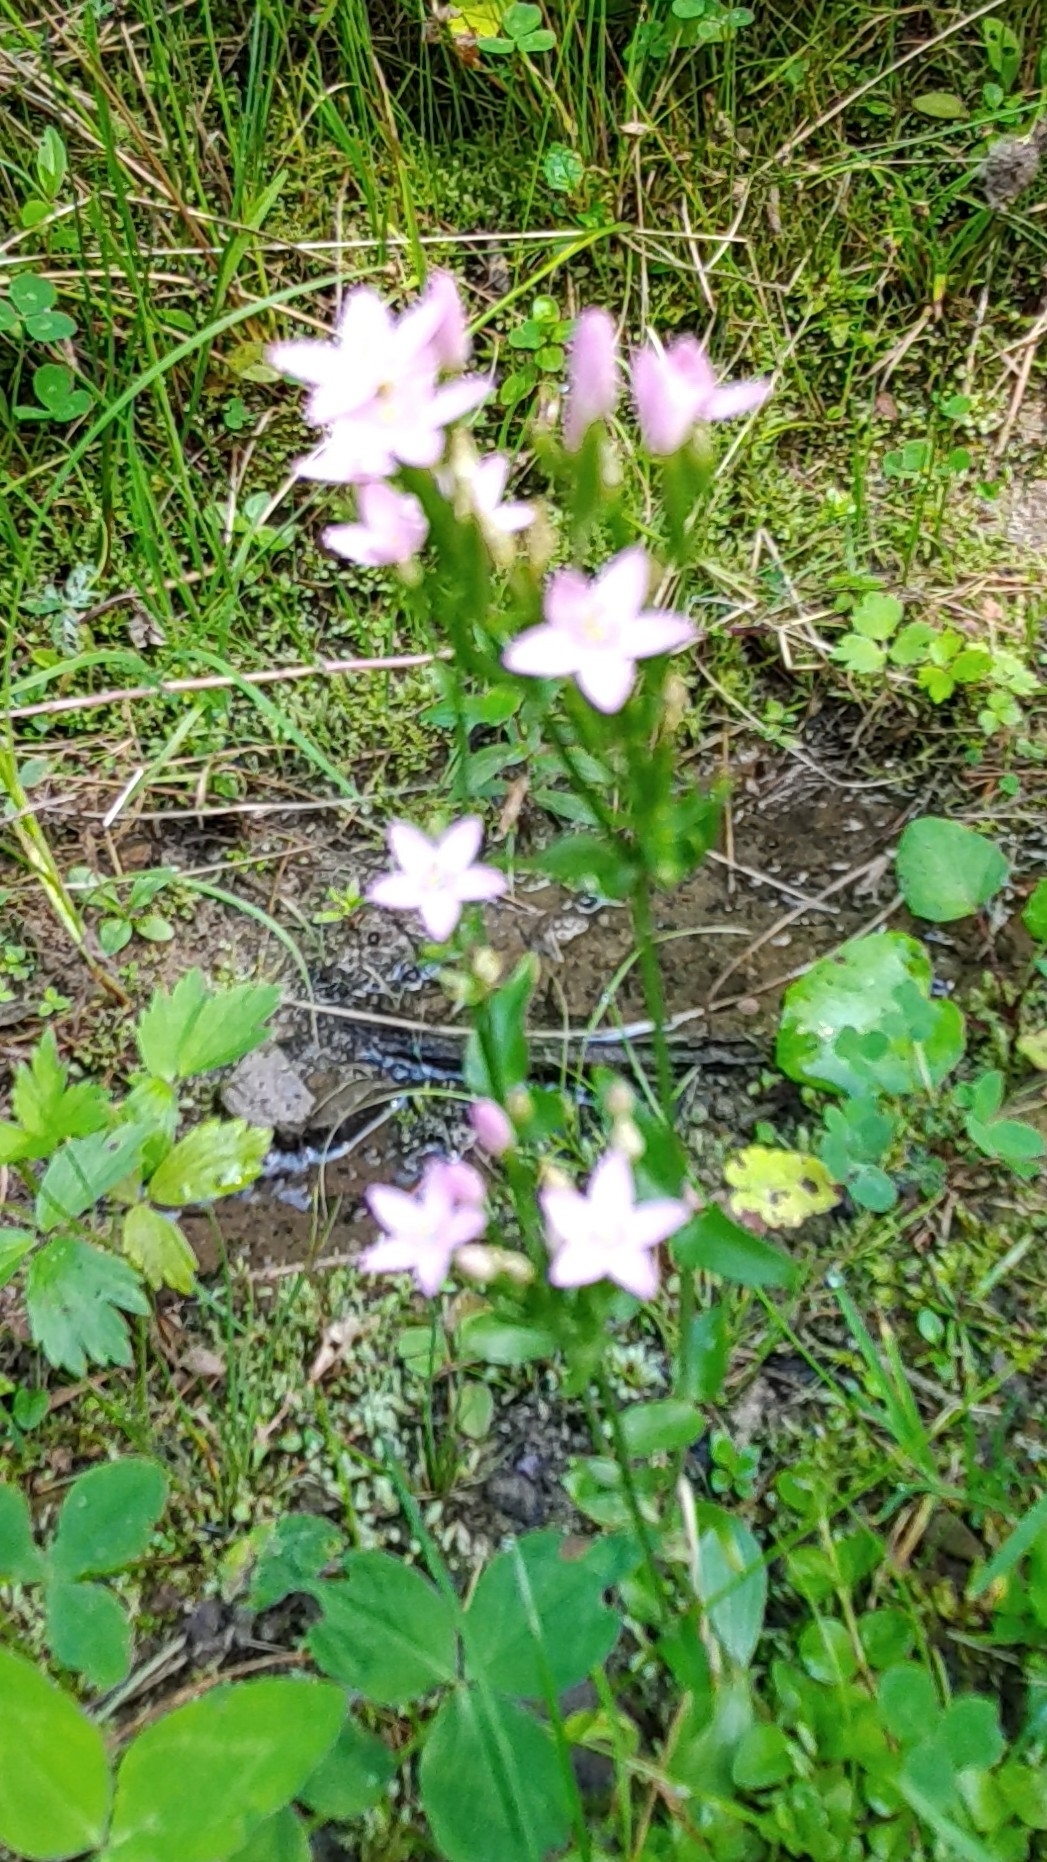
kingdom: Plantae
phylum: Tracheophyta
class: Magnoliopsida
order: Gentianales
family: Gentianaceae
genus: Centaurium
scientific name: Centaurium erythraea
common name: Common centaury
